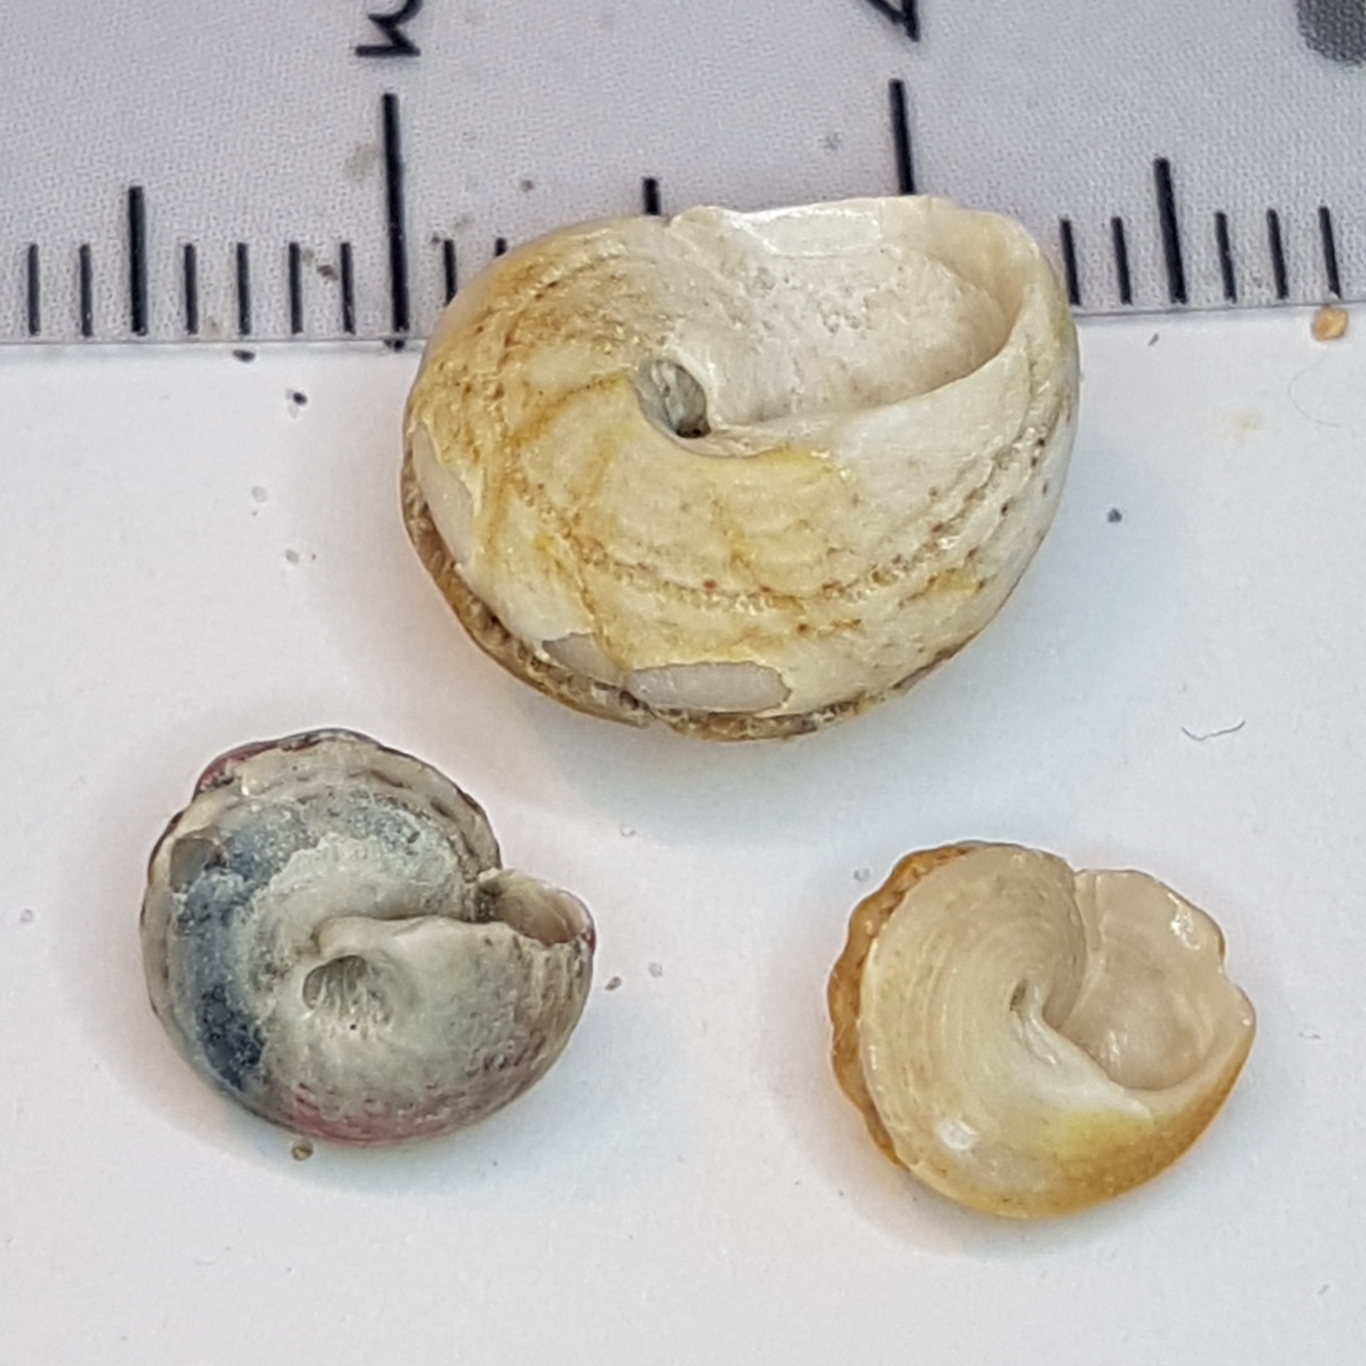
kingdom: Animalia
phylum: Mollusca
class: Gastropoda
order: Trochida
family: Trochidae
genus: Gibbula
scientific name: Gibbula fanulum
